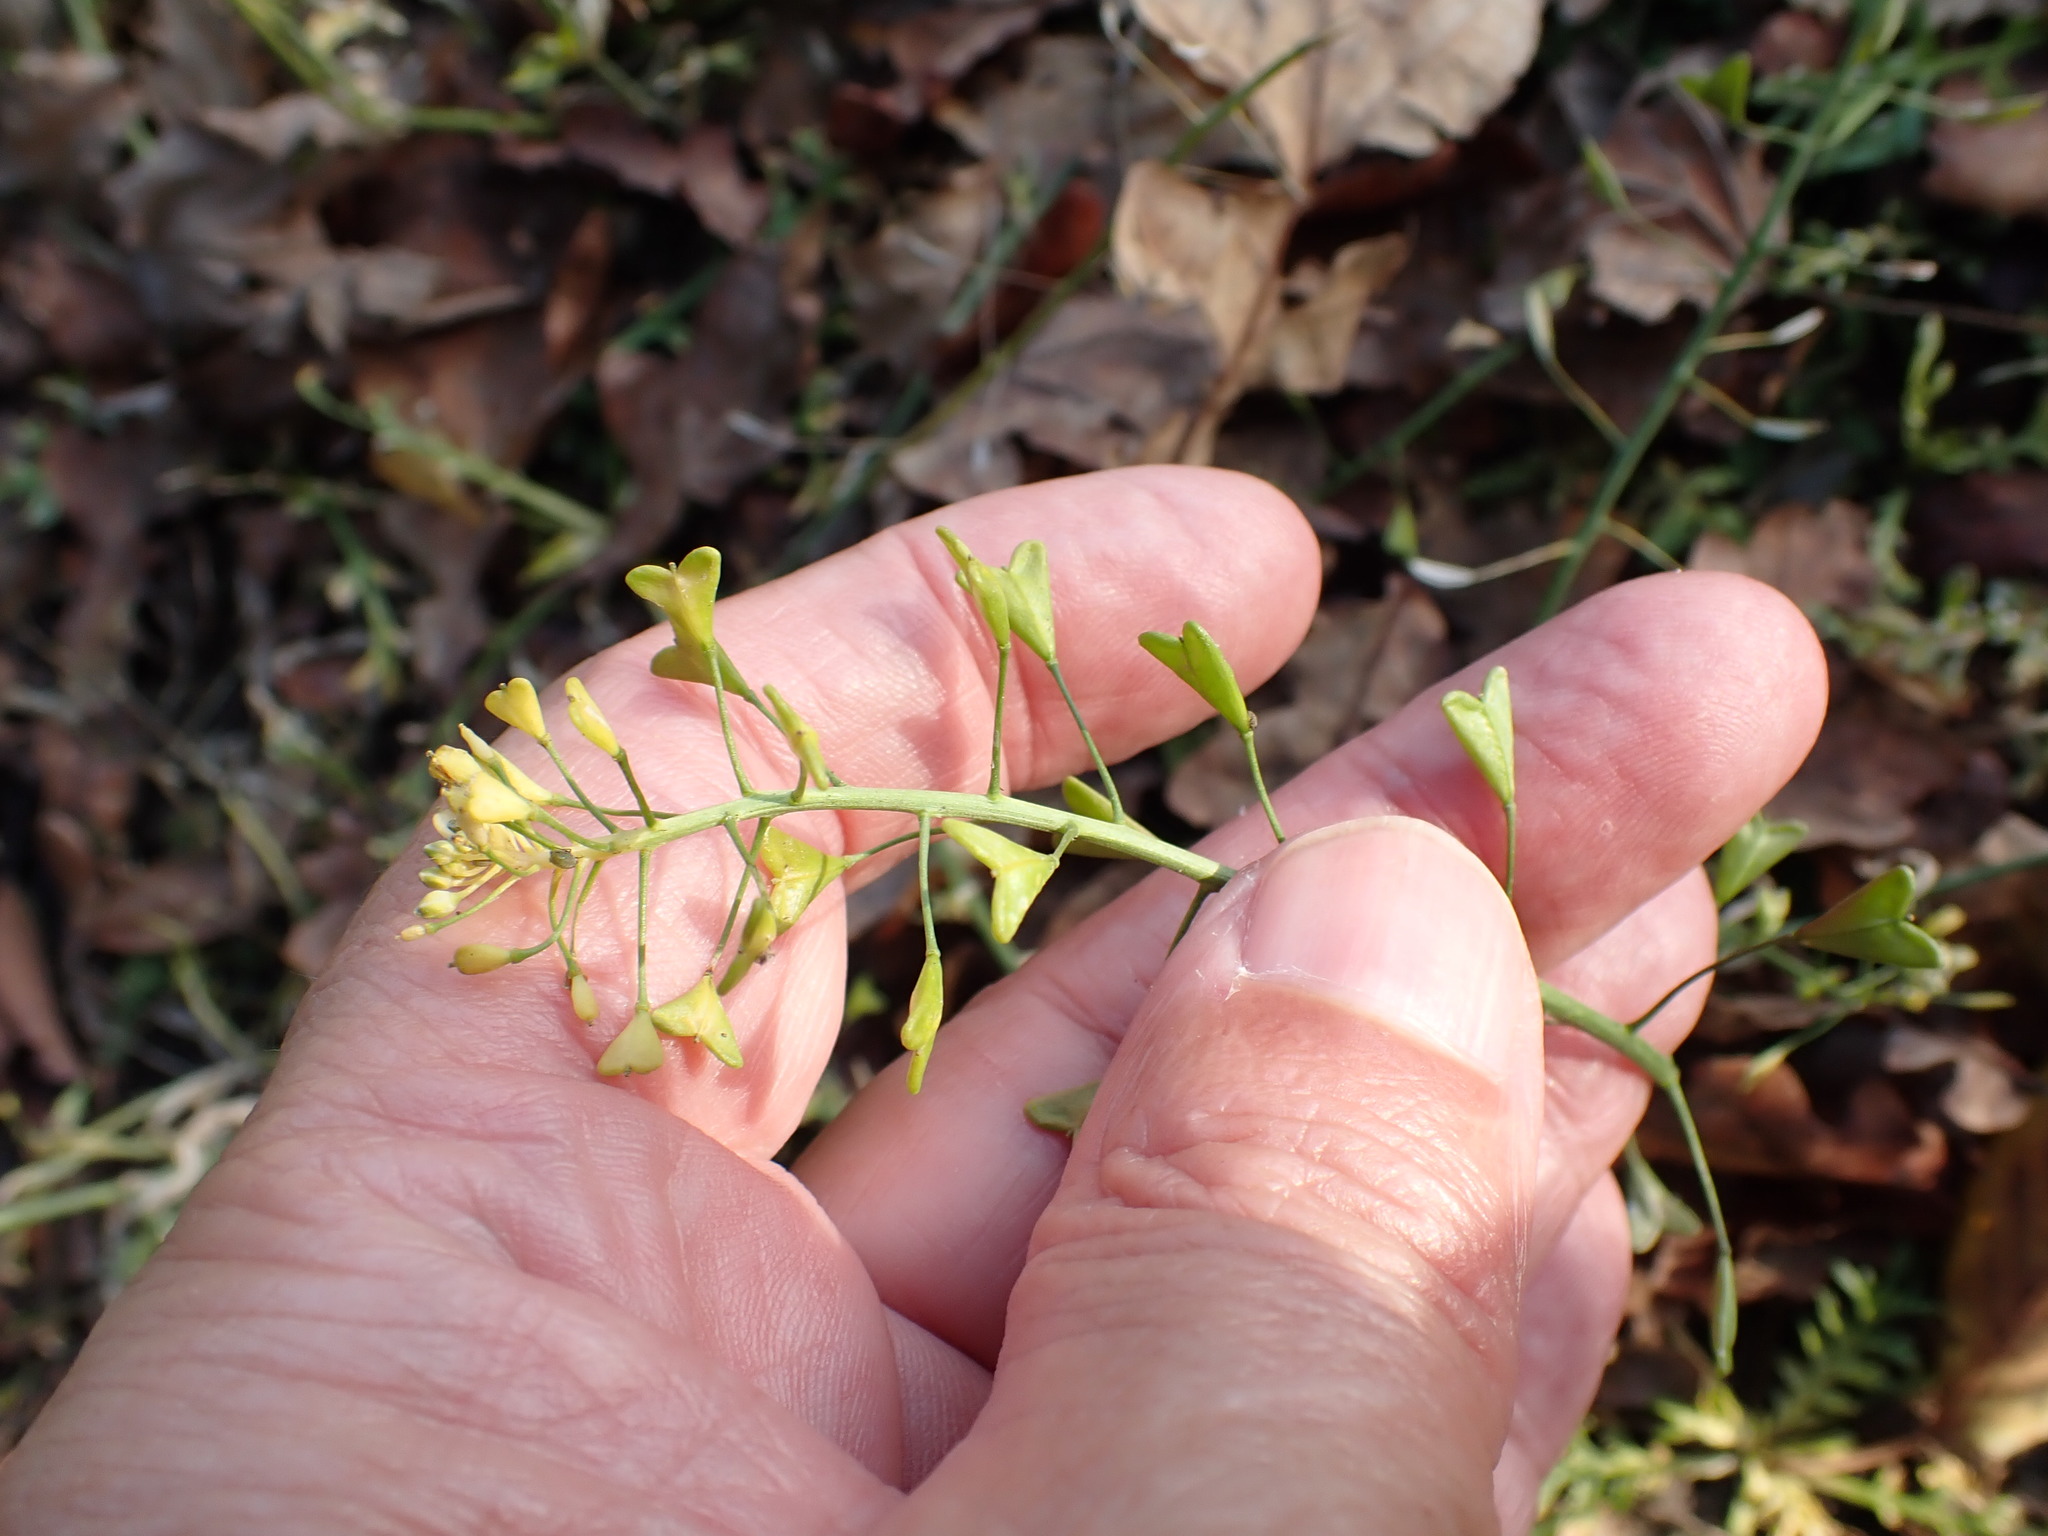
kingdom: Plantae
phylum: Tracheophyta
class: Magnoliopsida
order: Brassicales
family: Brassicaceae
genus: Capsella
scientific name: Capsella bursa-pastoris
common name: Shepherd's purse
